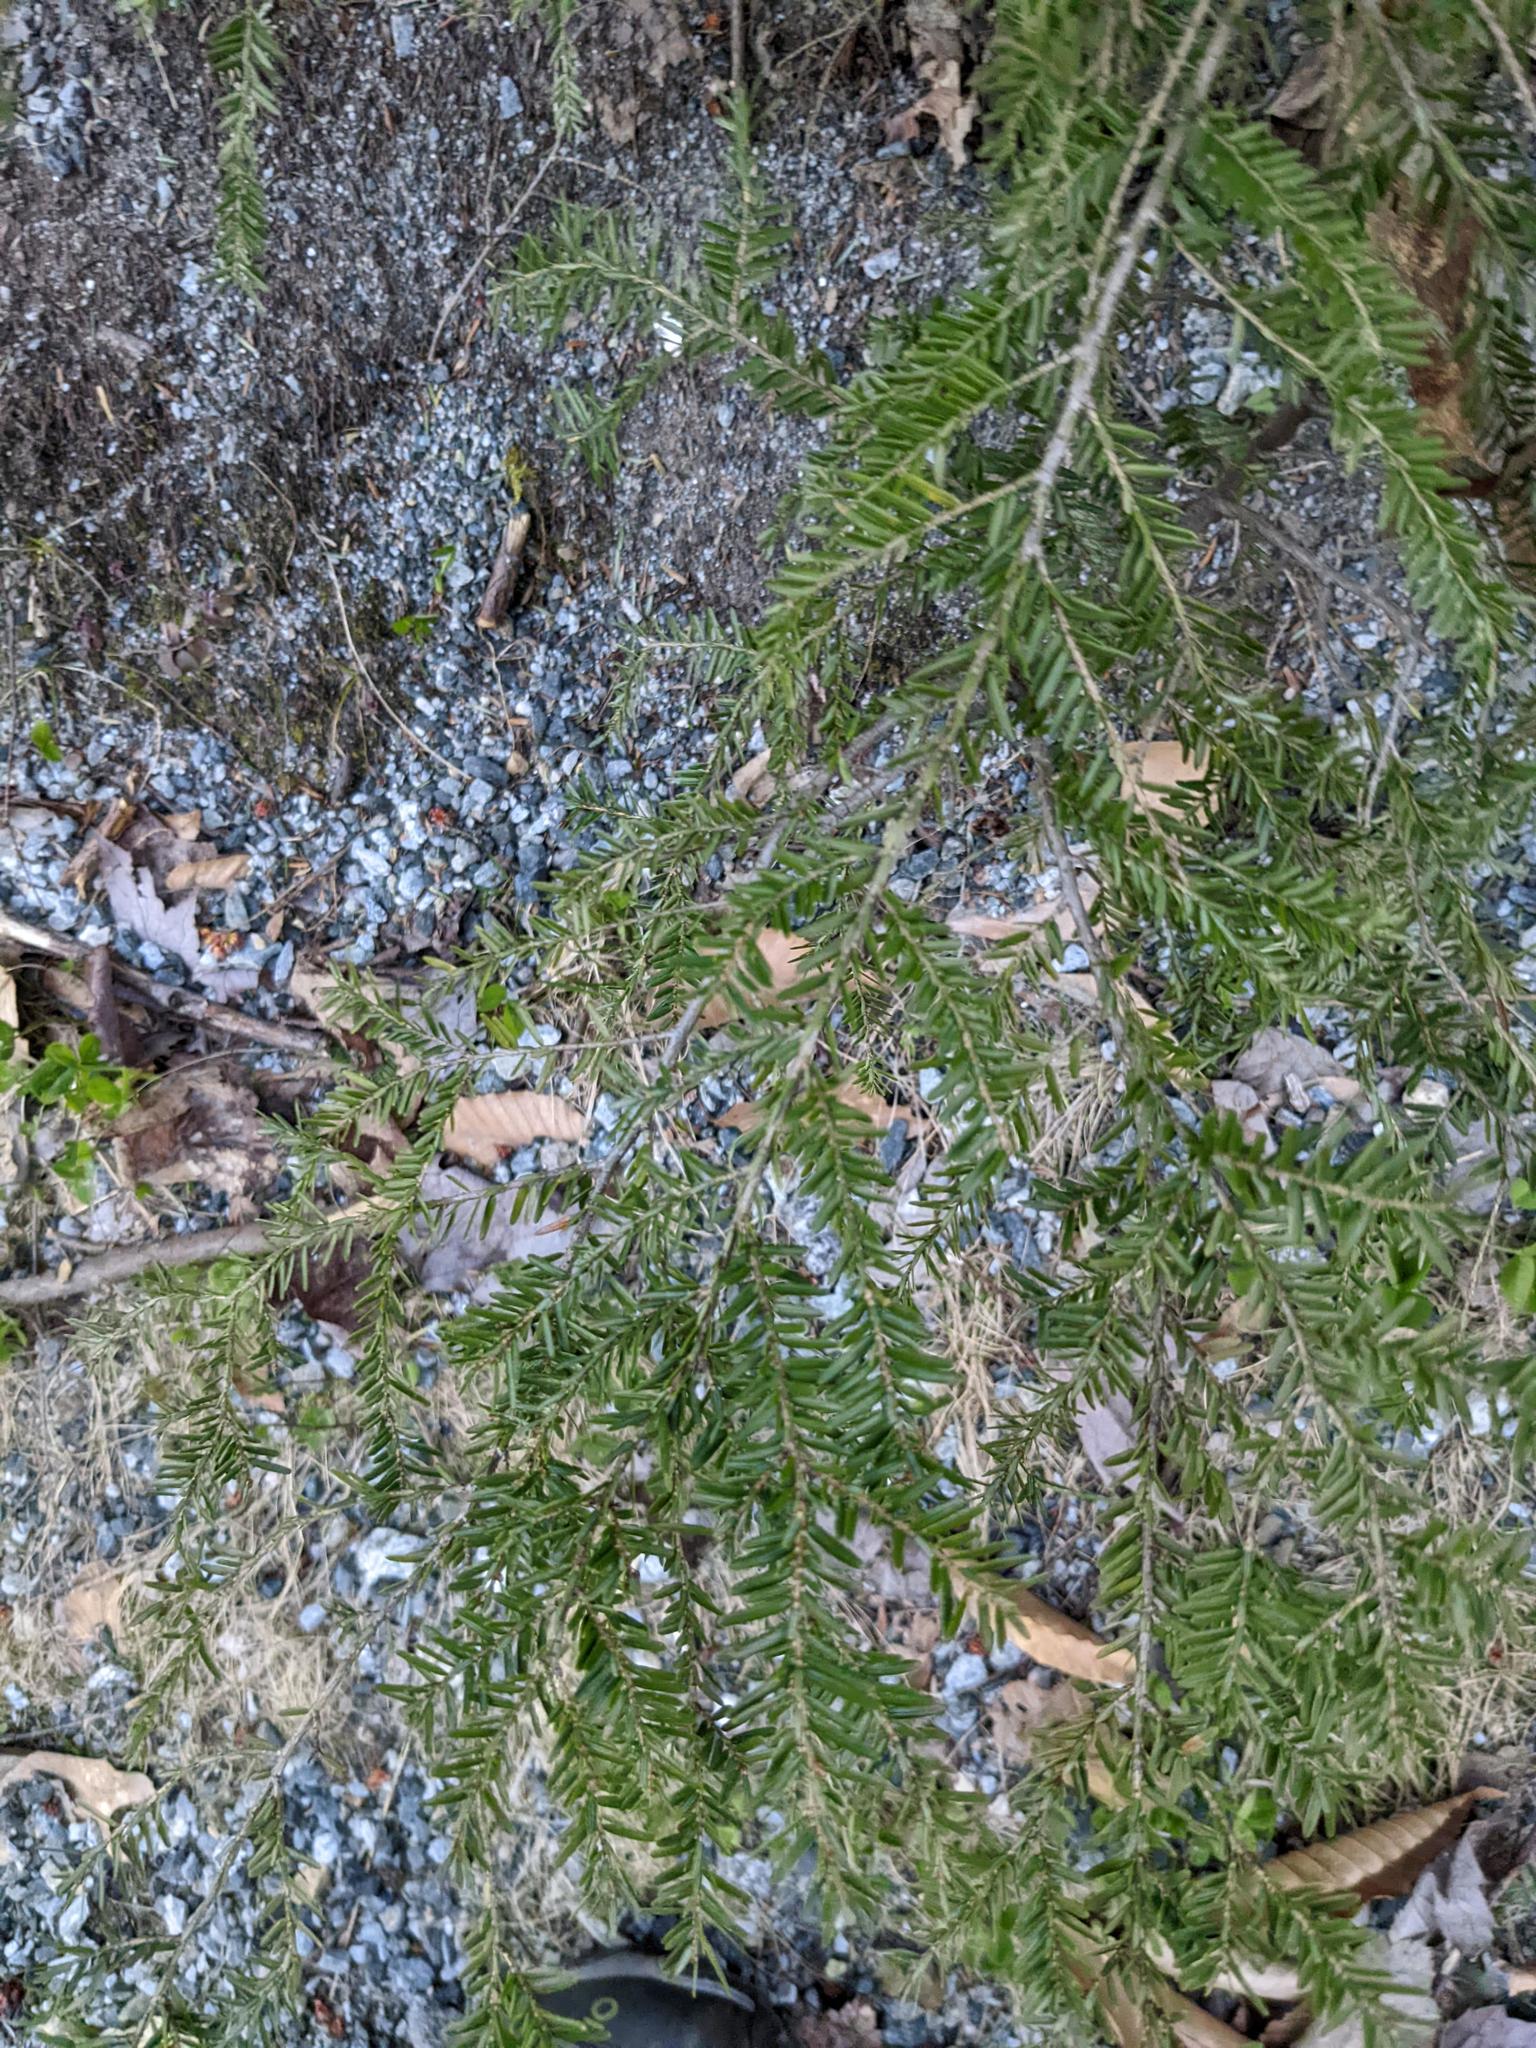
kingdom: Plantae
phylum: Tracheophyta
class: Pinopsida
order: Pinales
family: Pinaceae
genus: Tsuga
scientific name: Tsuga canadensis
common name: Eastern hemlock
